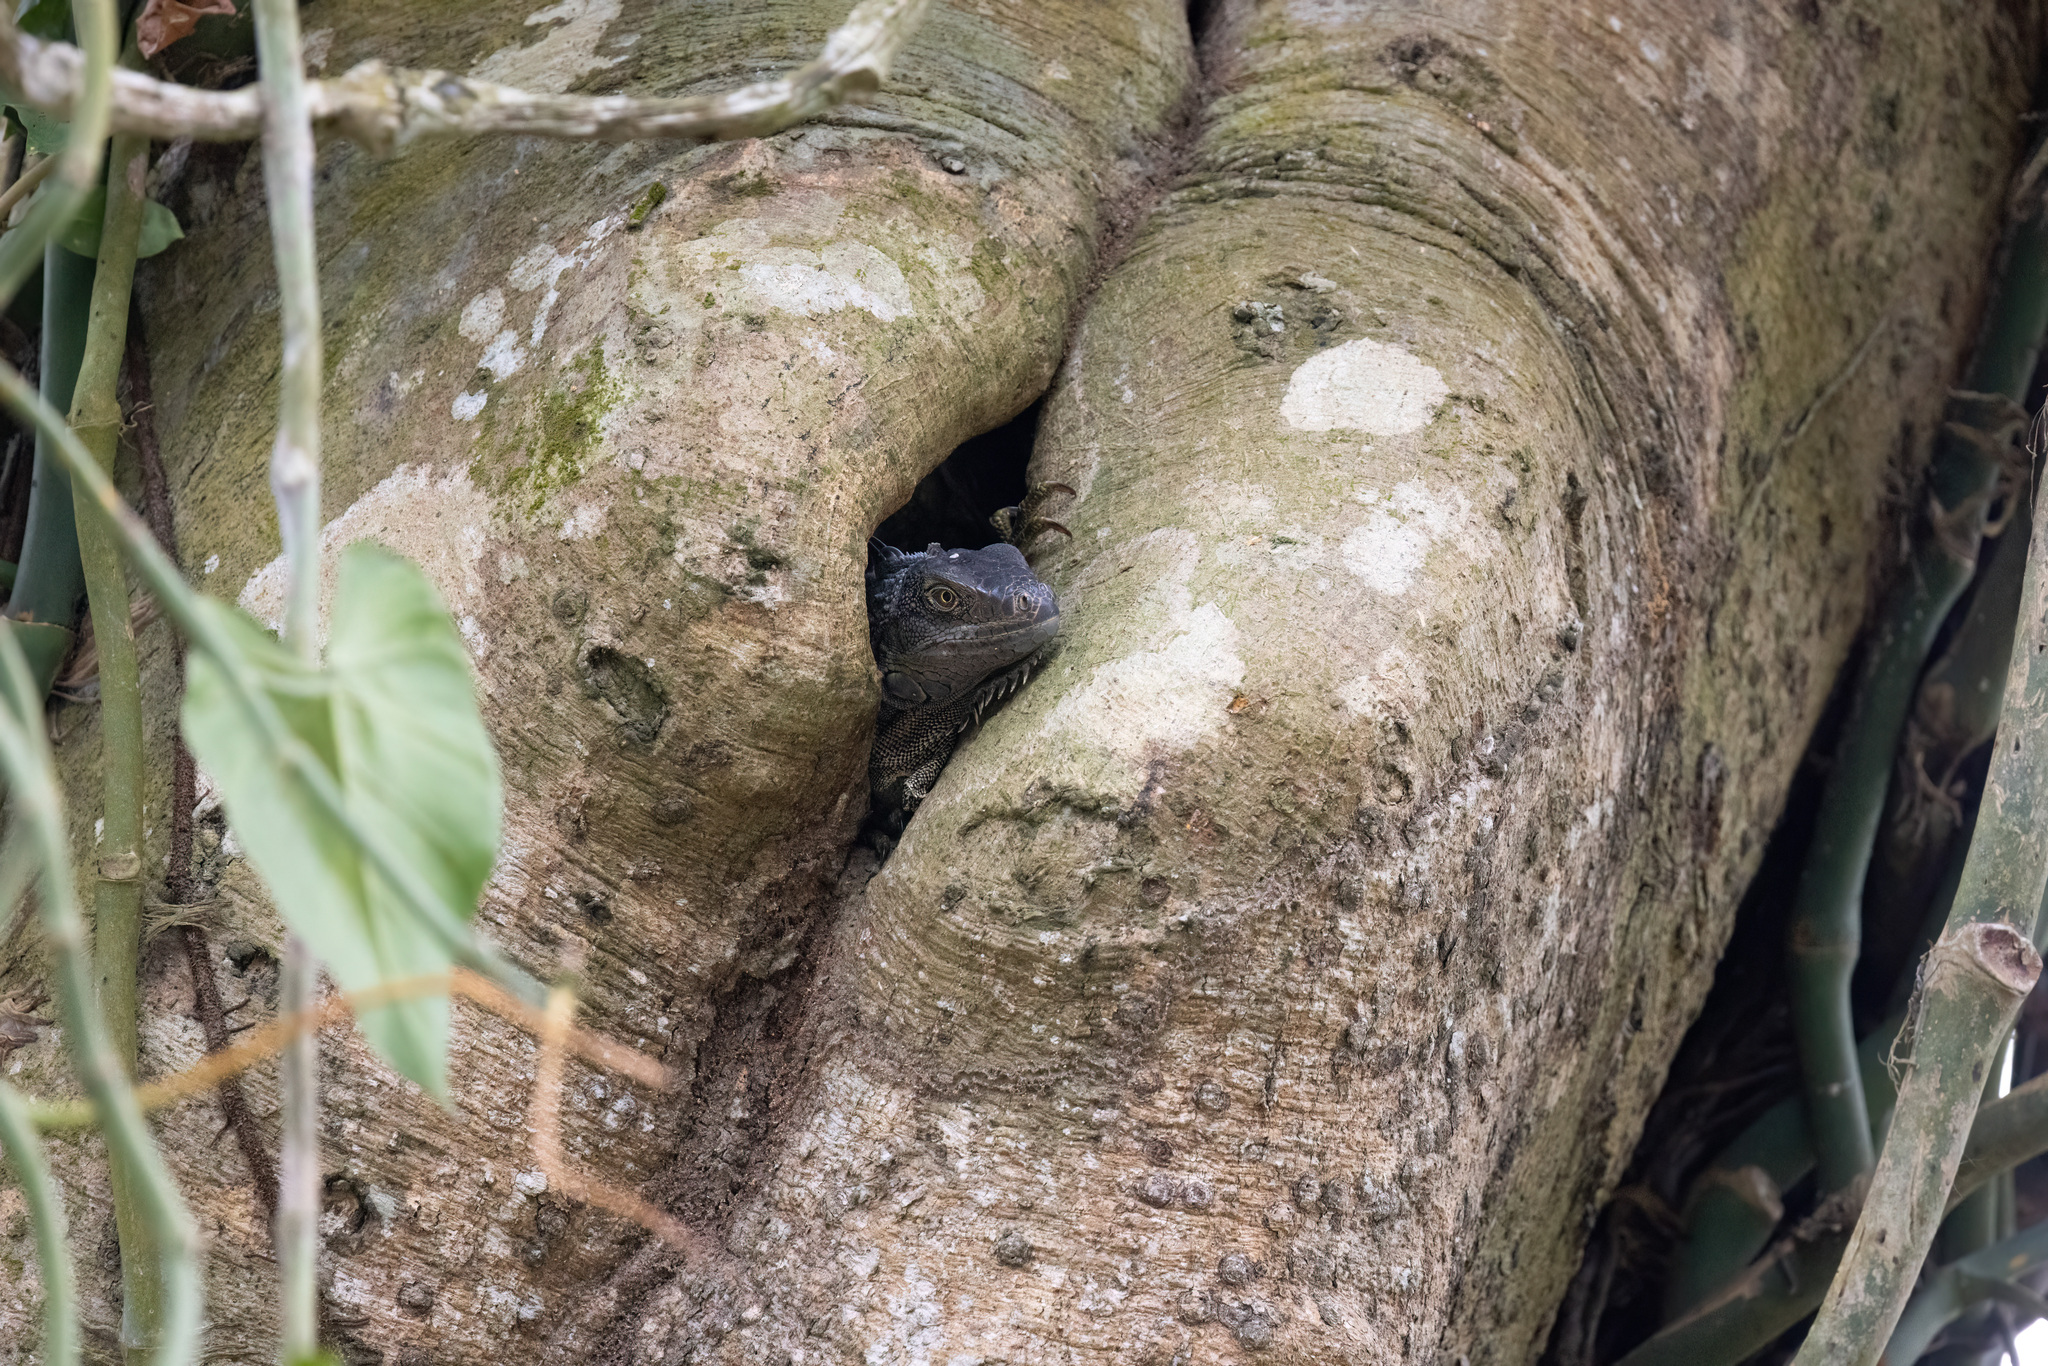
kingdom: Animalia
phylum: Chordata
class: Squamata
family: Iguanidae
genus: Iguana
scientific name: Iguana iguana
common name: Green iguana
